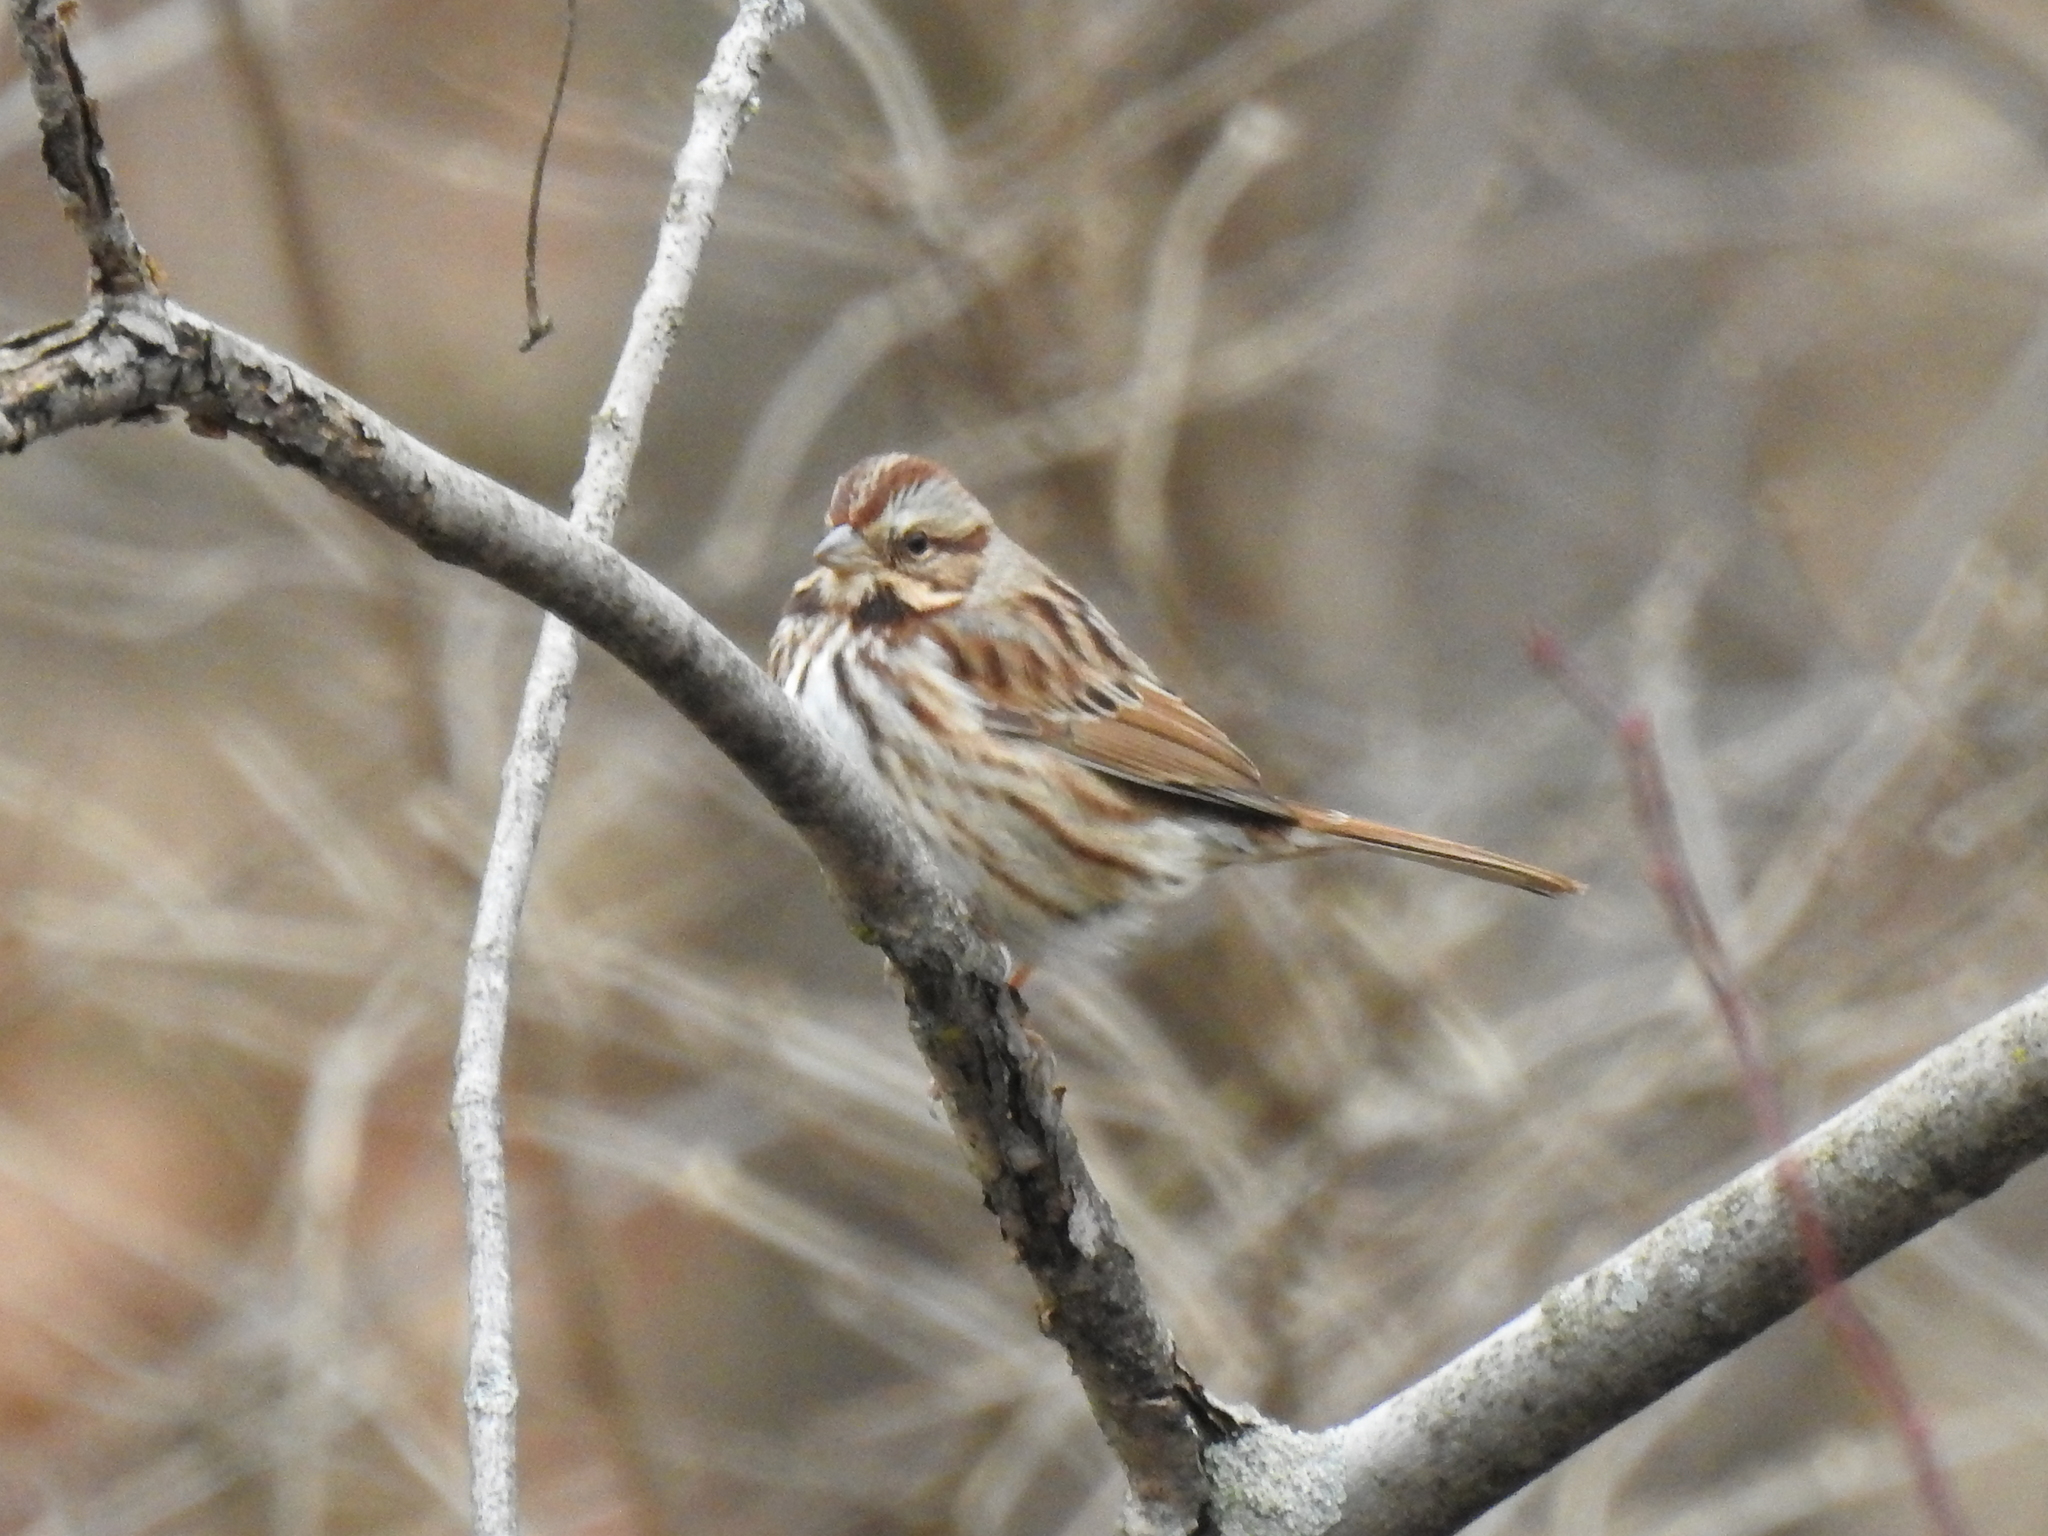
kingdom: Animalia
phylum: Chordata
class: Aves
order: Passeriformes
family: Passerellidae
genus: Melospiza
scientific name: Melospiza melodia
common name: Song sparrow
